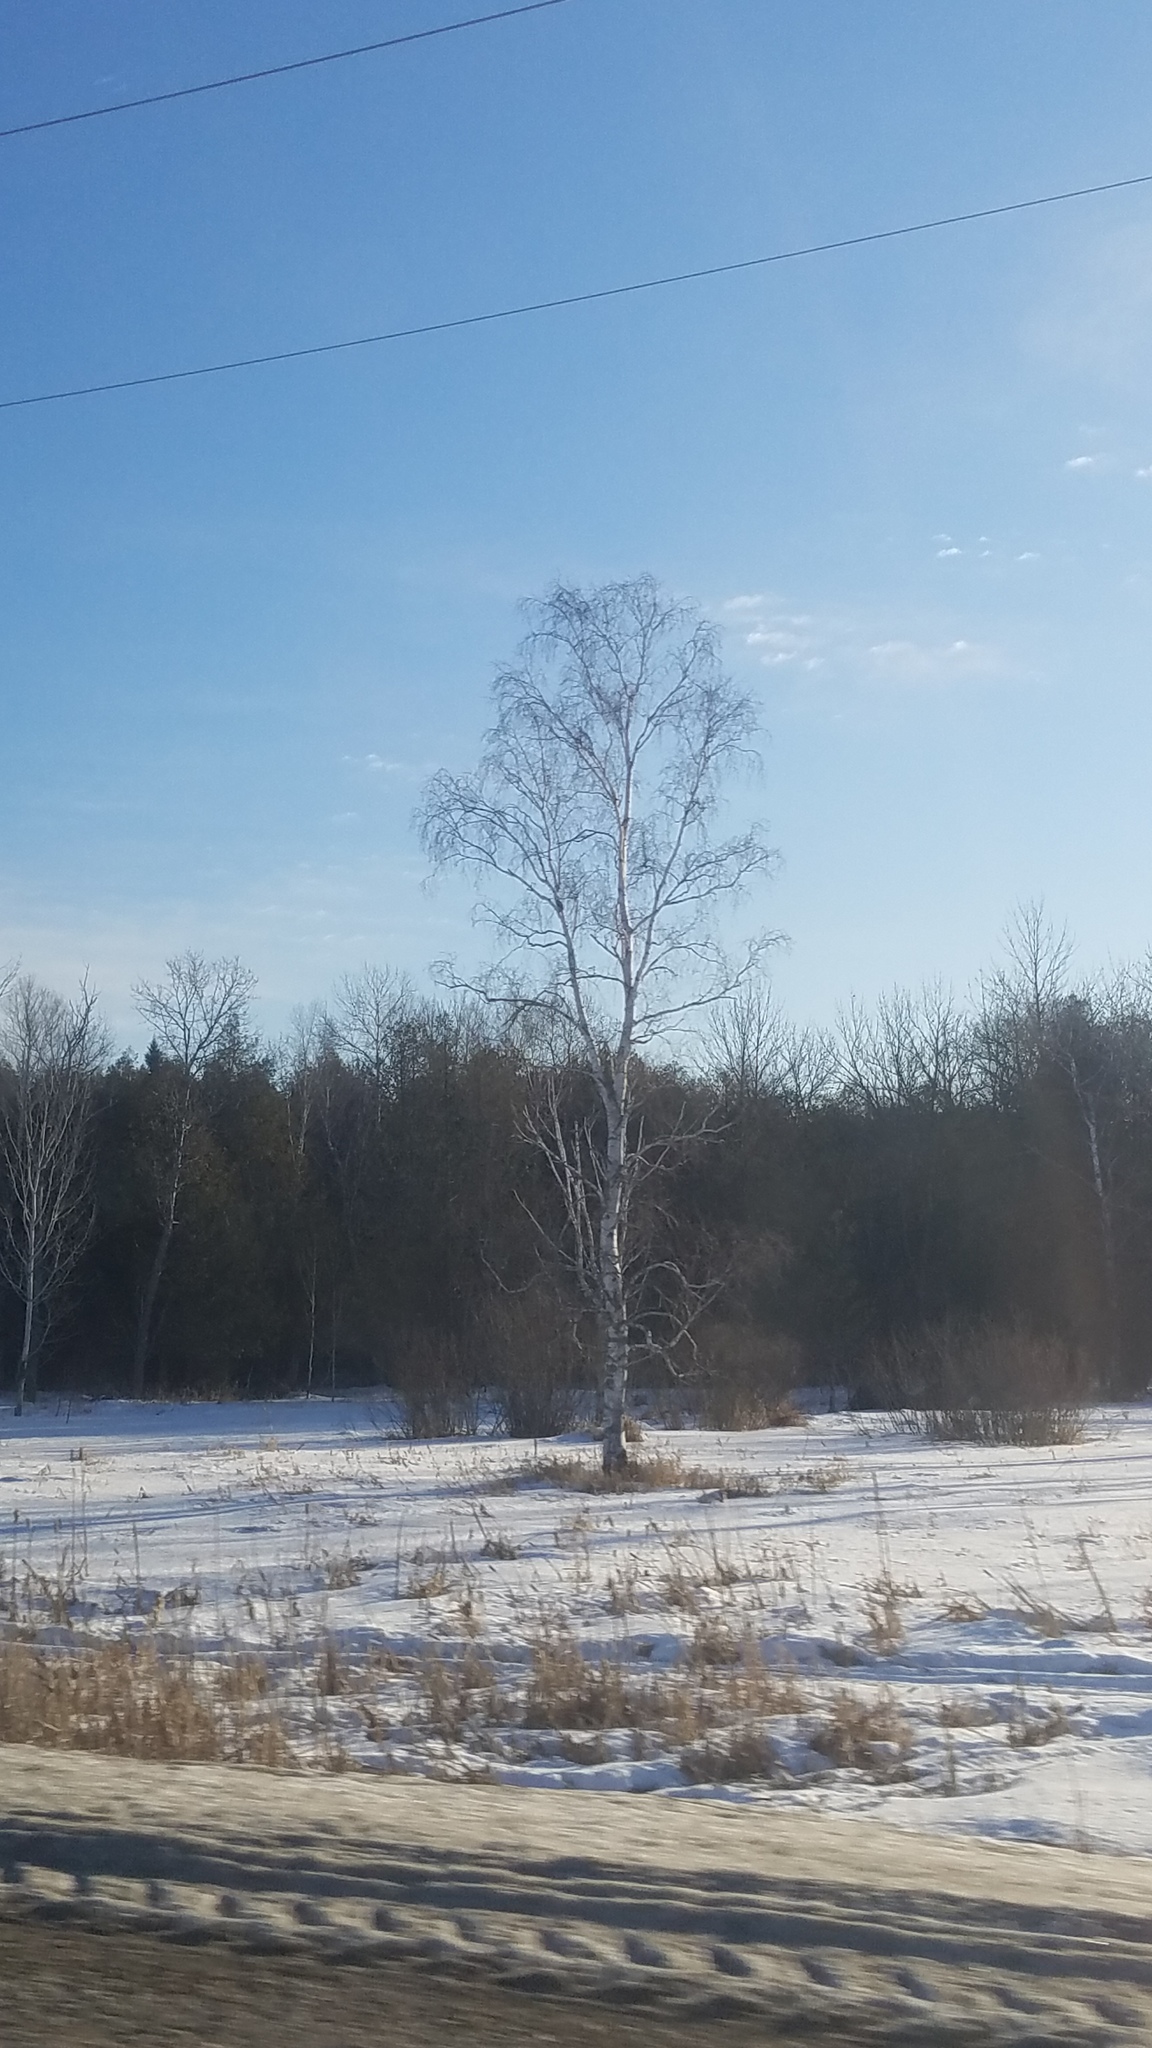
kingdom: Plantae
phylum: Tracheophyta
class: Magnoliopsida
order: Fagales
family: Betulaceae
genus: Betula
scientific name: Betula papyrifera
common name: Paper birch
